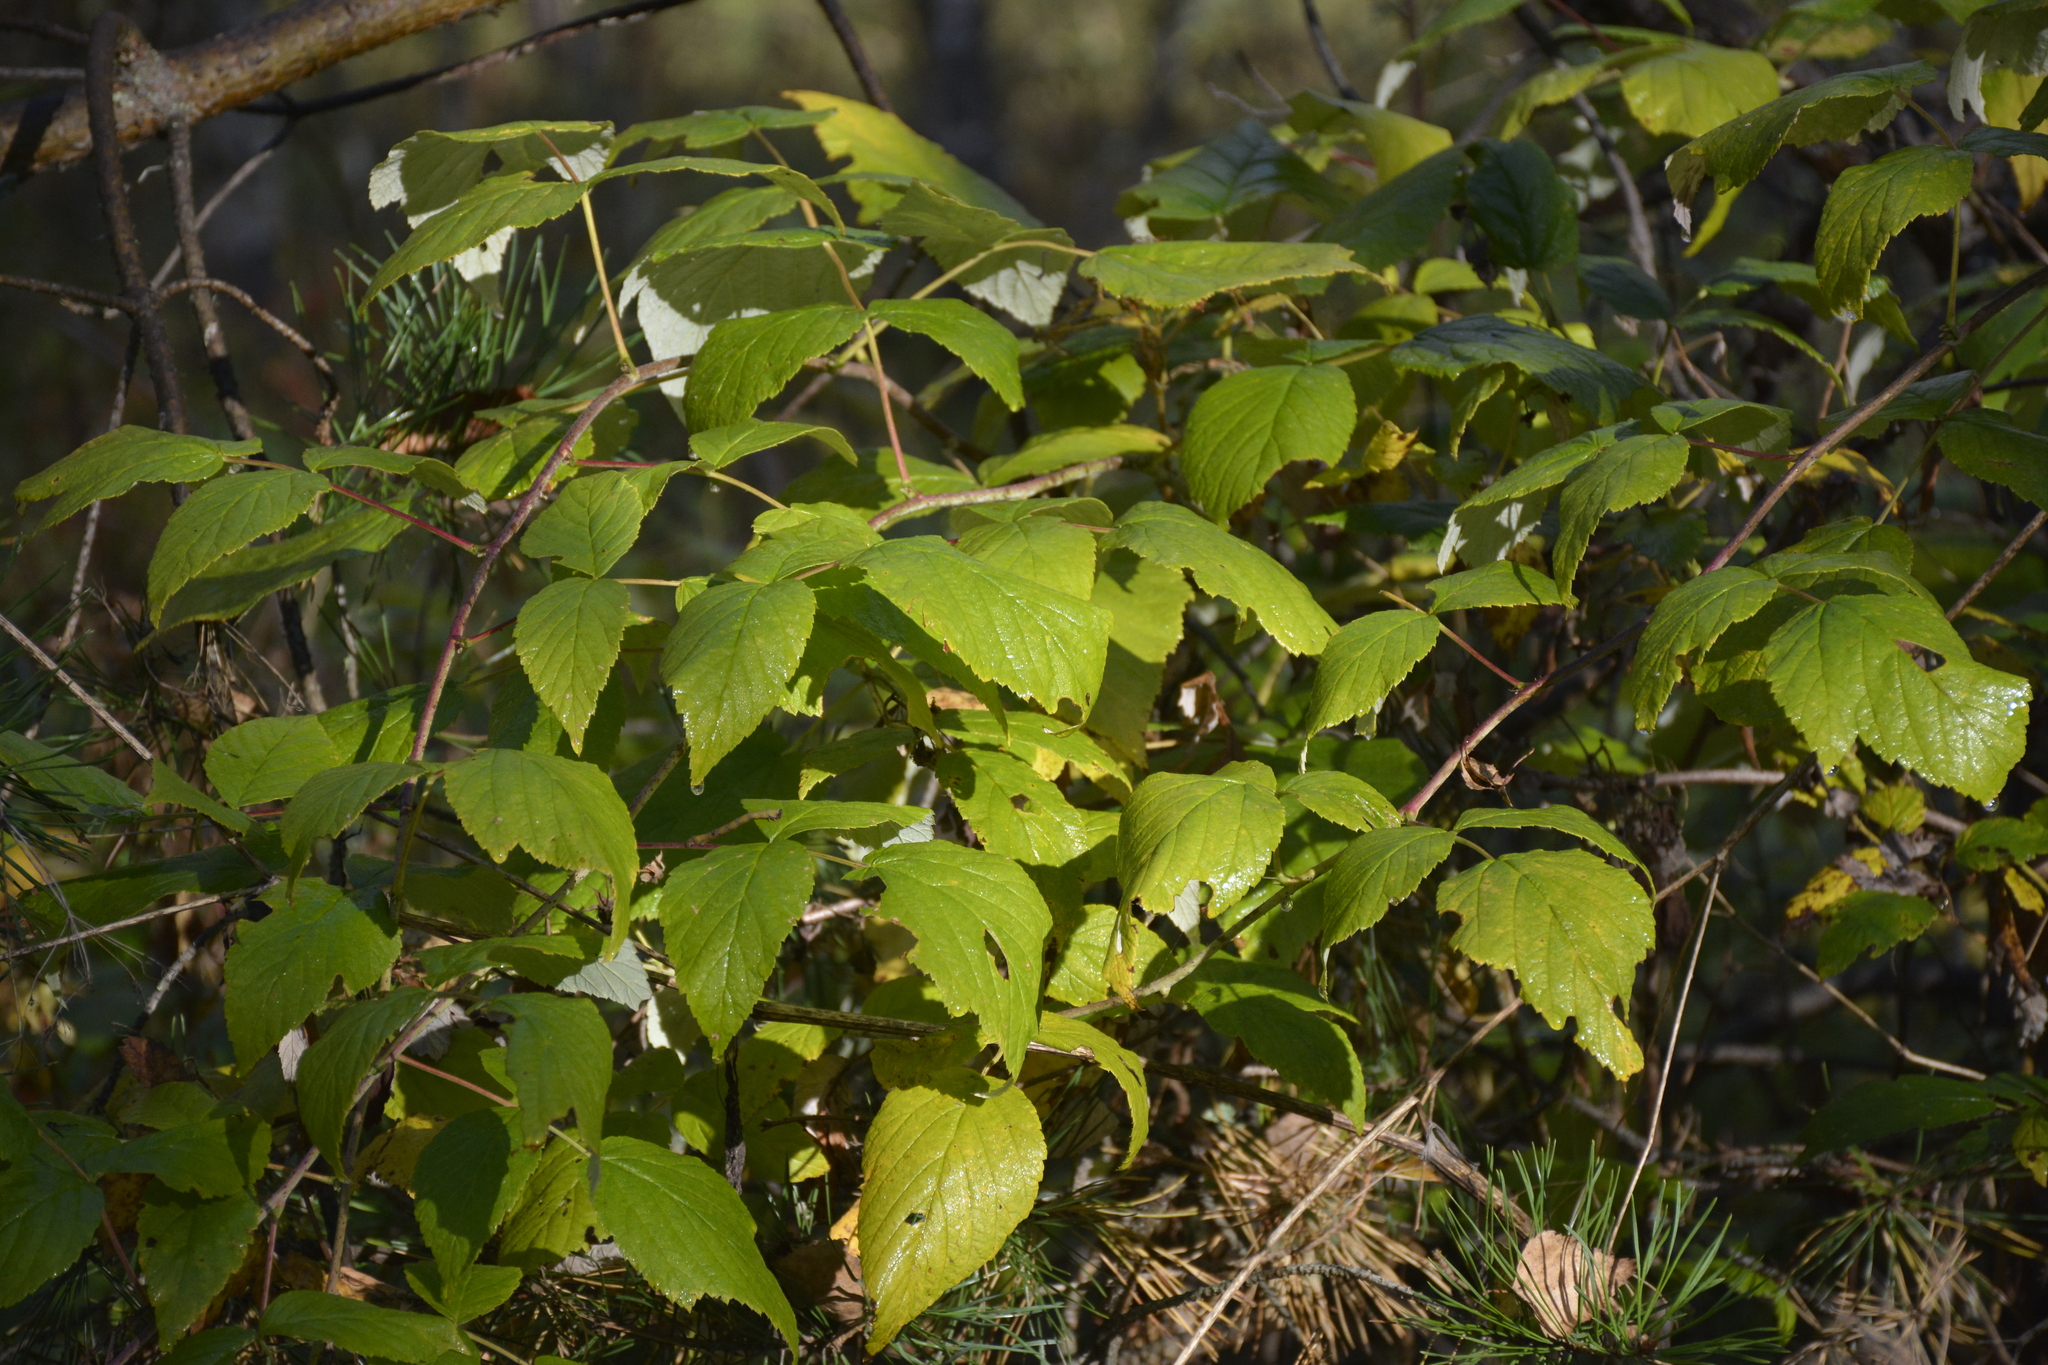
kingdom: Plantae
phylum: Tracheophyta
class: Magnoliopsida
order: Rosales
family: Rosaceae
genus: Rubus
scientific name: Rubus idaeus
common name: Raspberry
